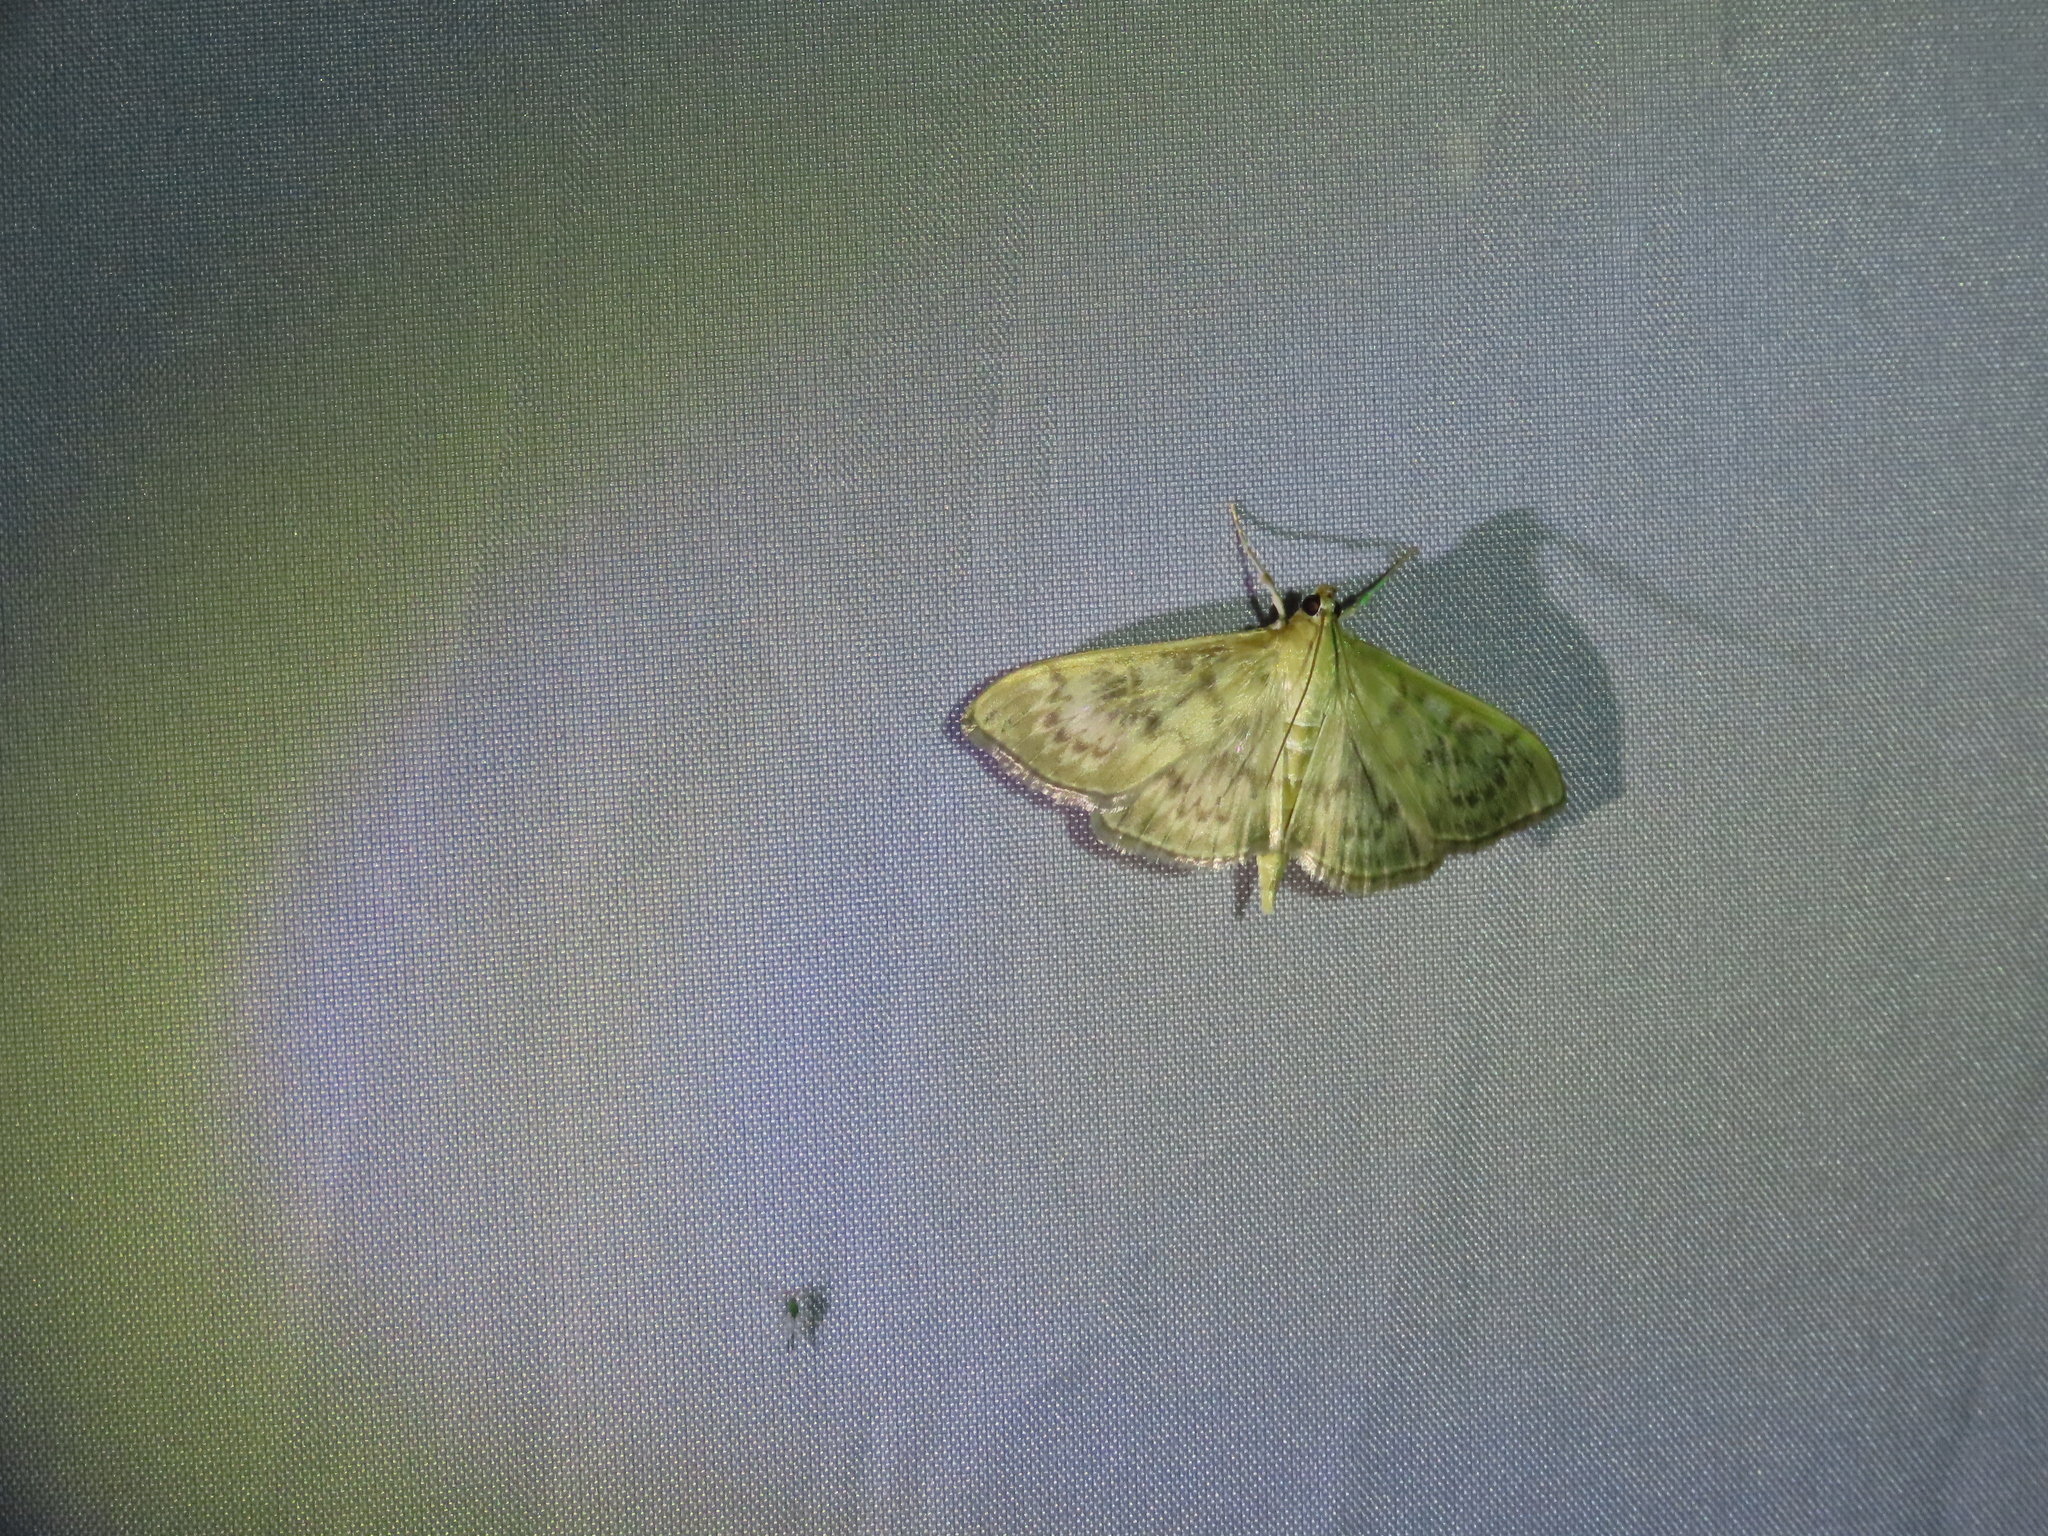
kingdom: Animalia
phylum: Arthropoda
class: Insecta
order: Lepidoptera
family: Crambidae
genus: Patania
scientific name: Patania ruralis
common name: Mother of pearl
